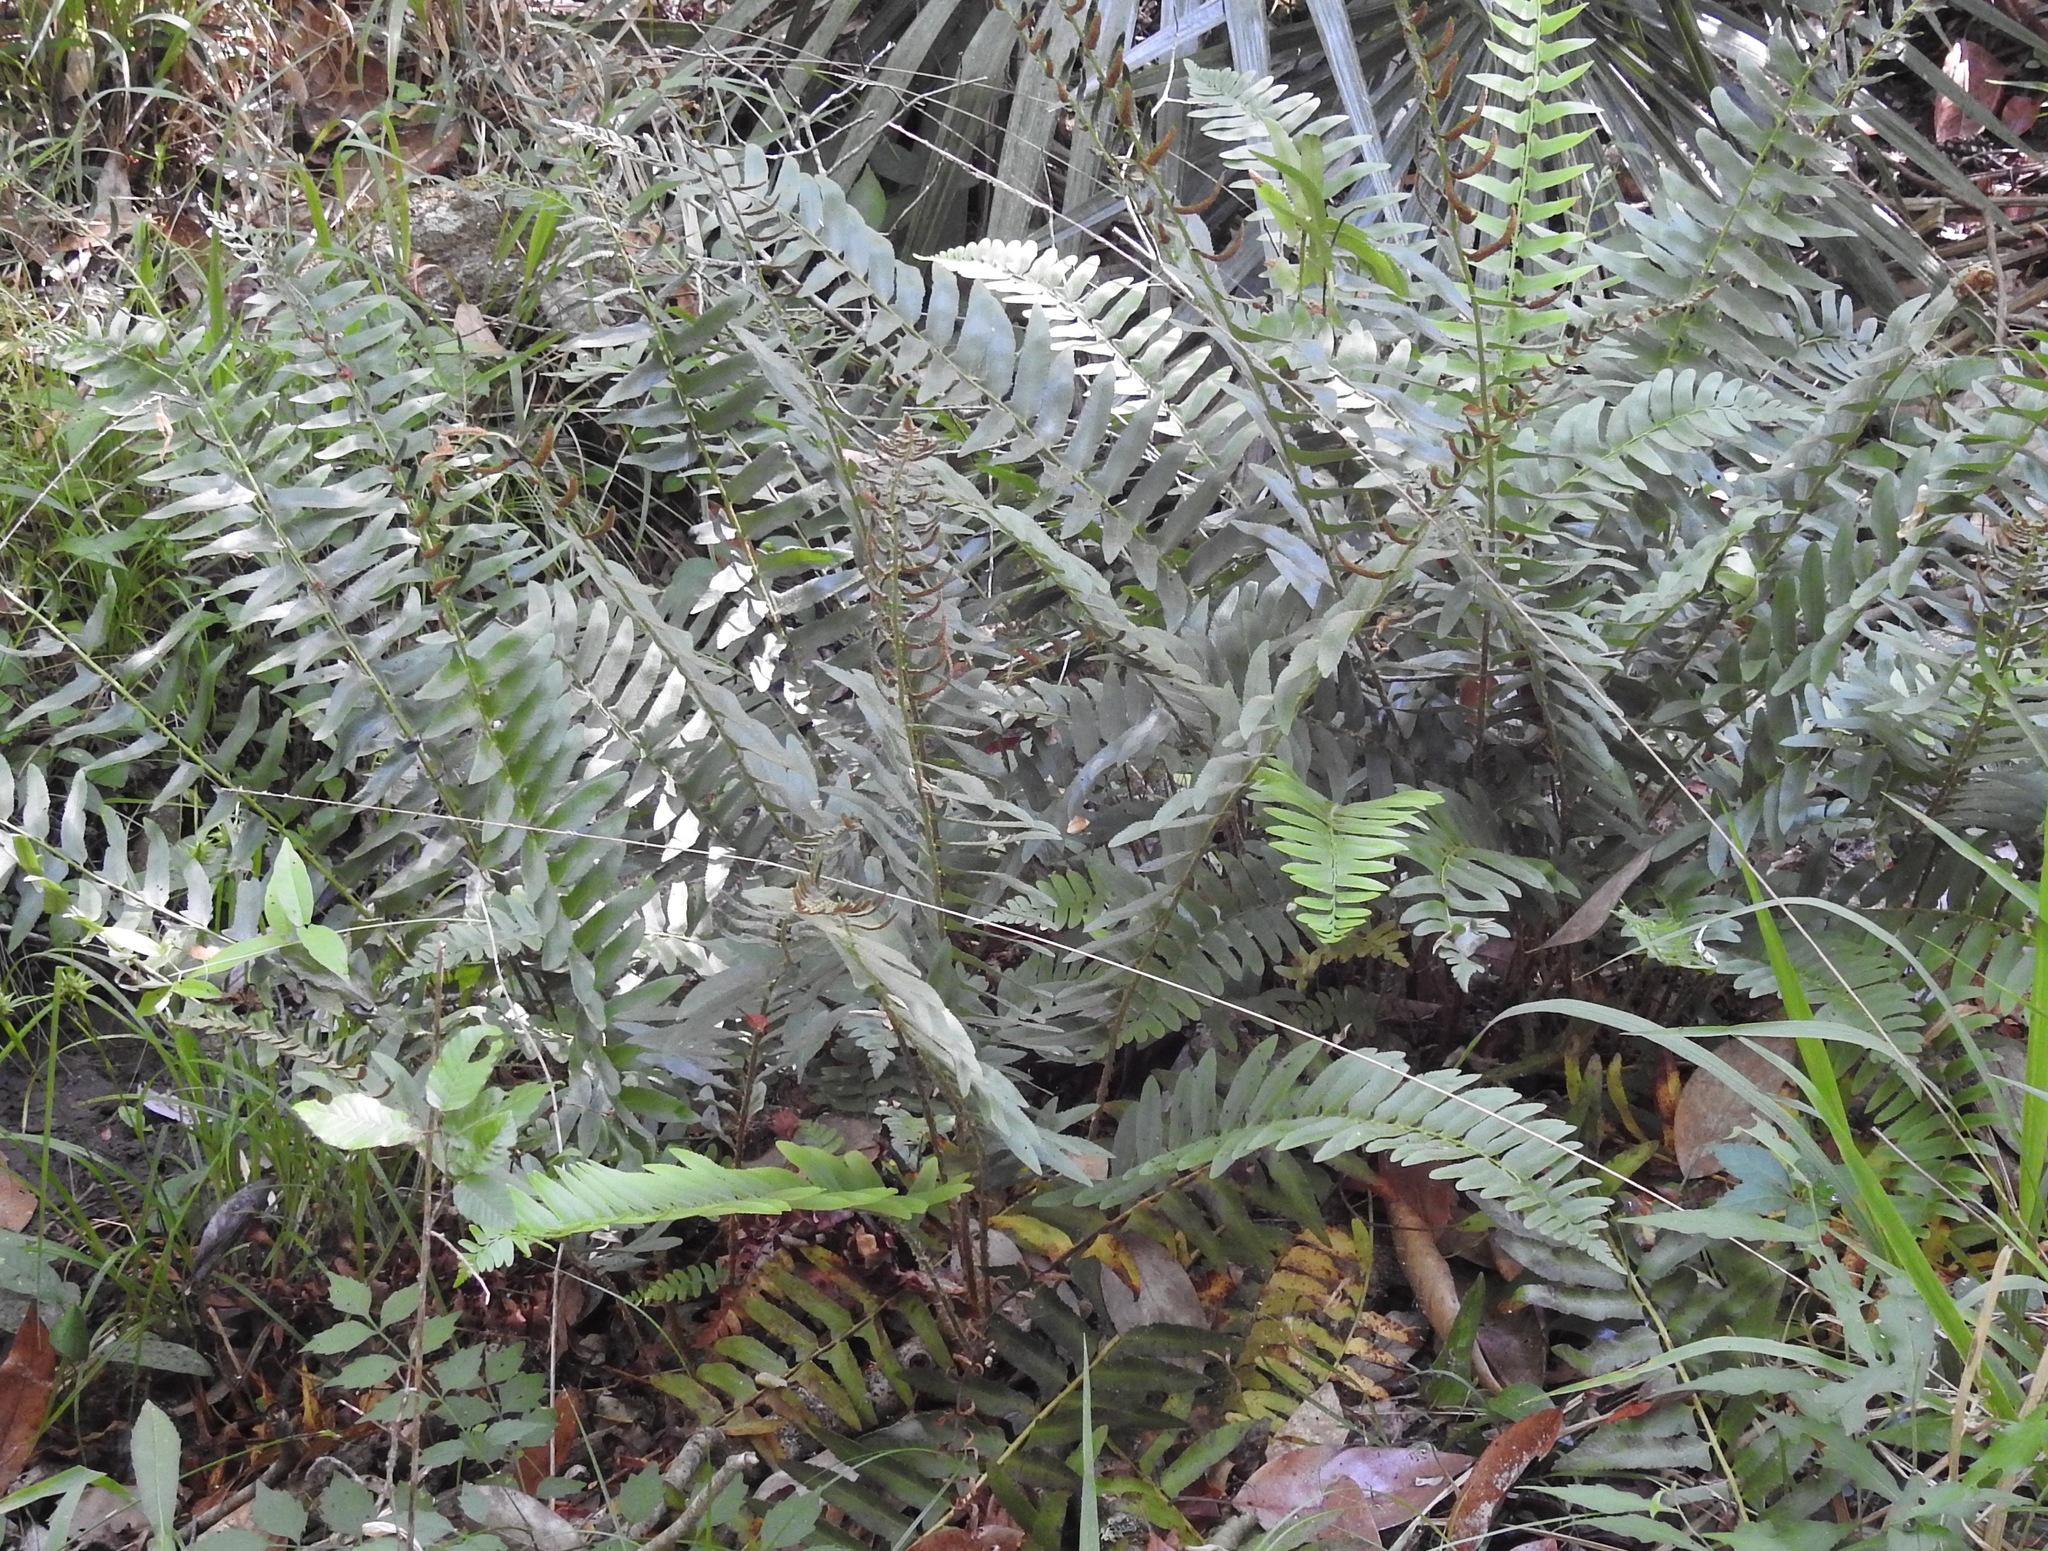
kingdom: Plantae
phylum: Tracheophyta
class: Polypodiopsida
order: Polypodiales
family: Dryopteridaceae
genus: Polystichum
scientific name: Polystichum acrostichoides
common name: Christmas fern
